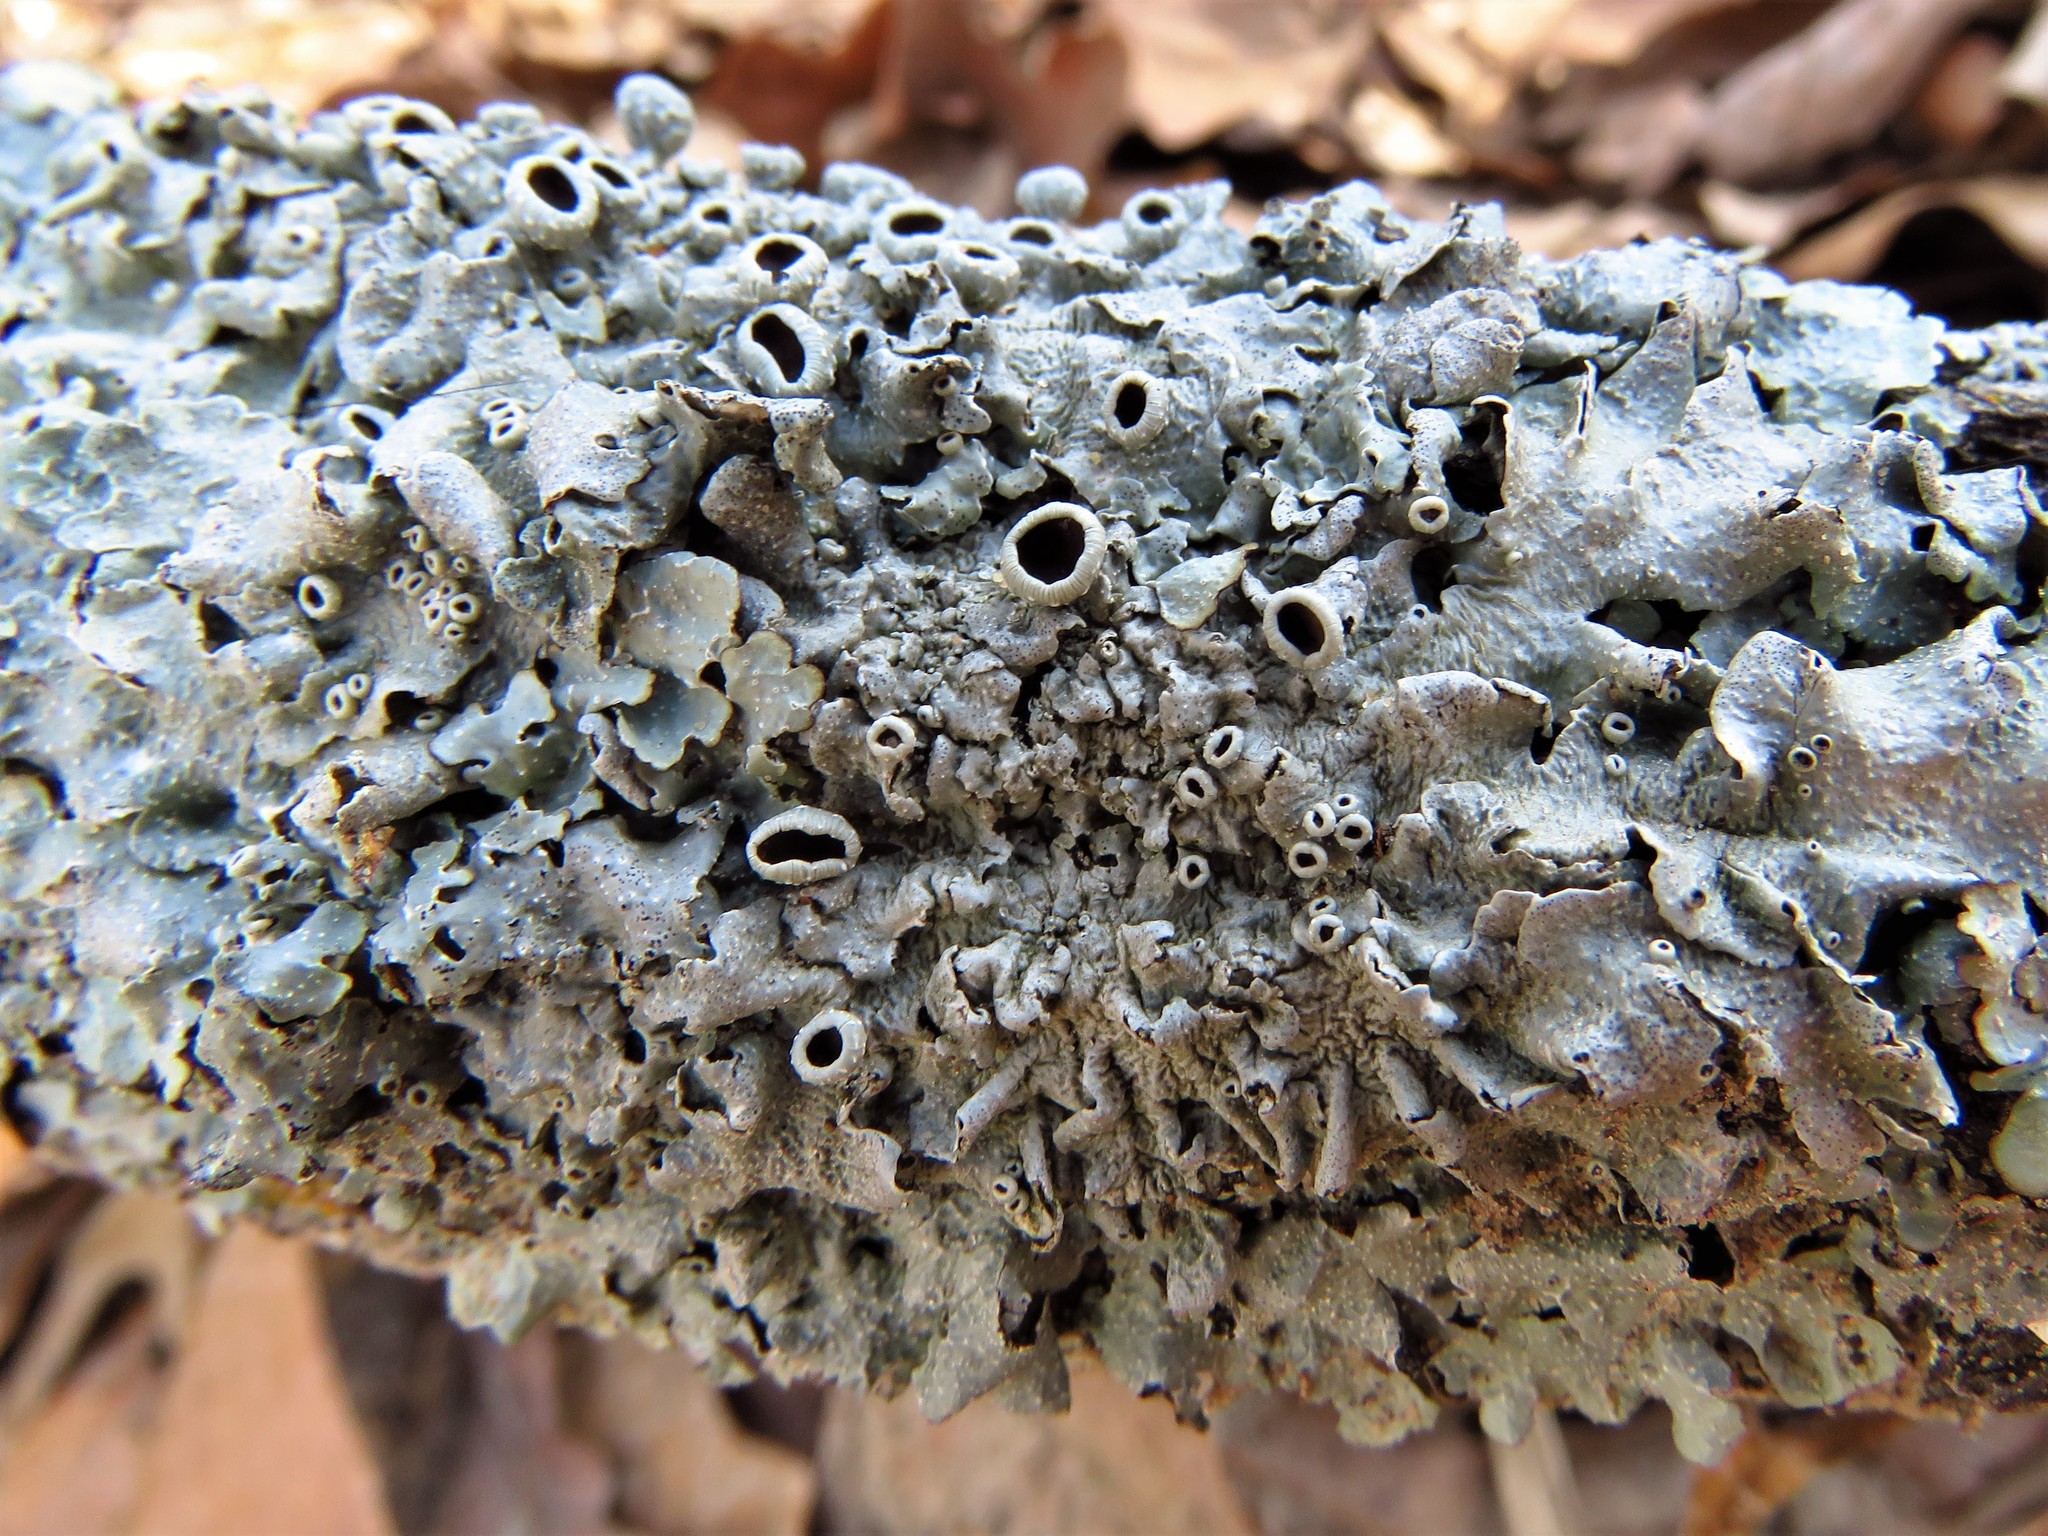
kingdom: Fungi
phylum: Ascomycota
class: Lecanoromycetes
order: Lecanorales
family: Parmeliaceae
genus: Punctelia
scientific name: Punctelia bolliana
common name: Eastern speckled shield lichen
